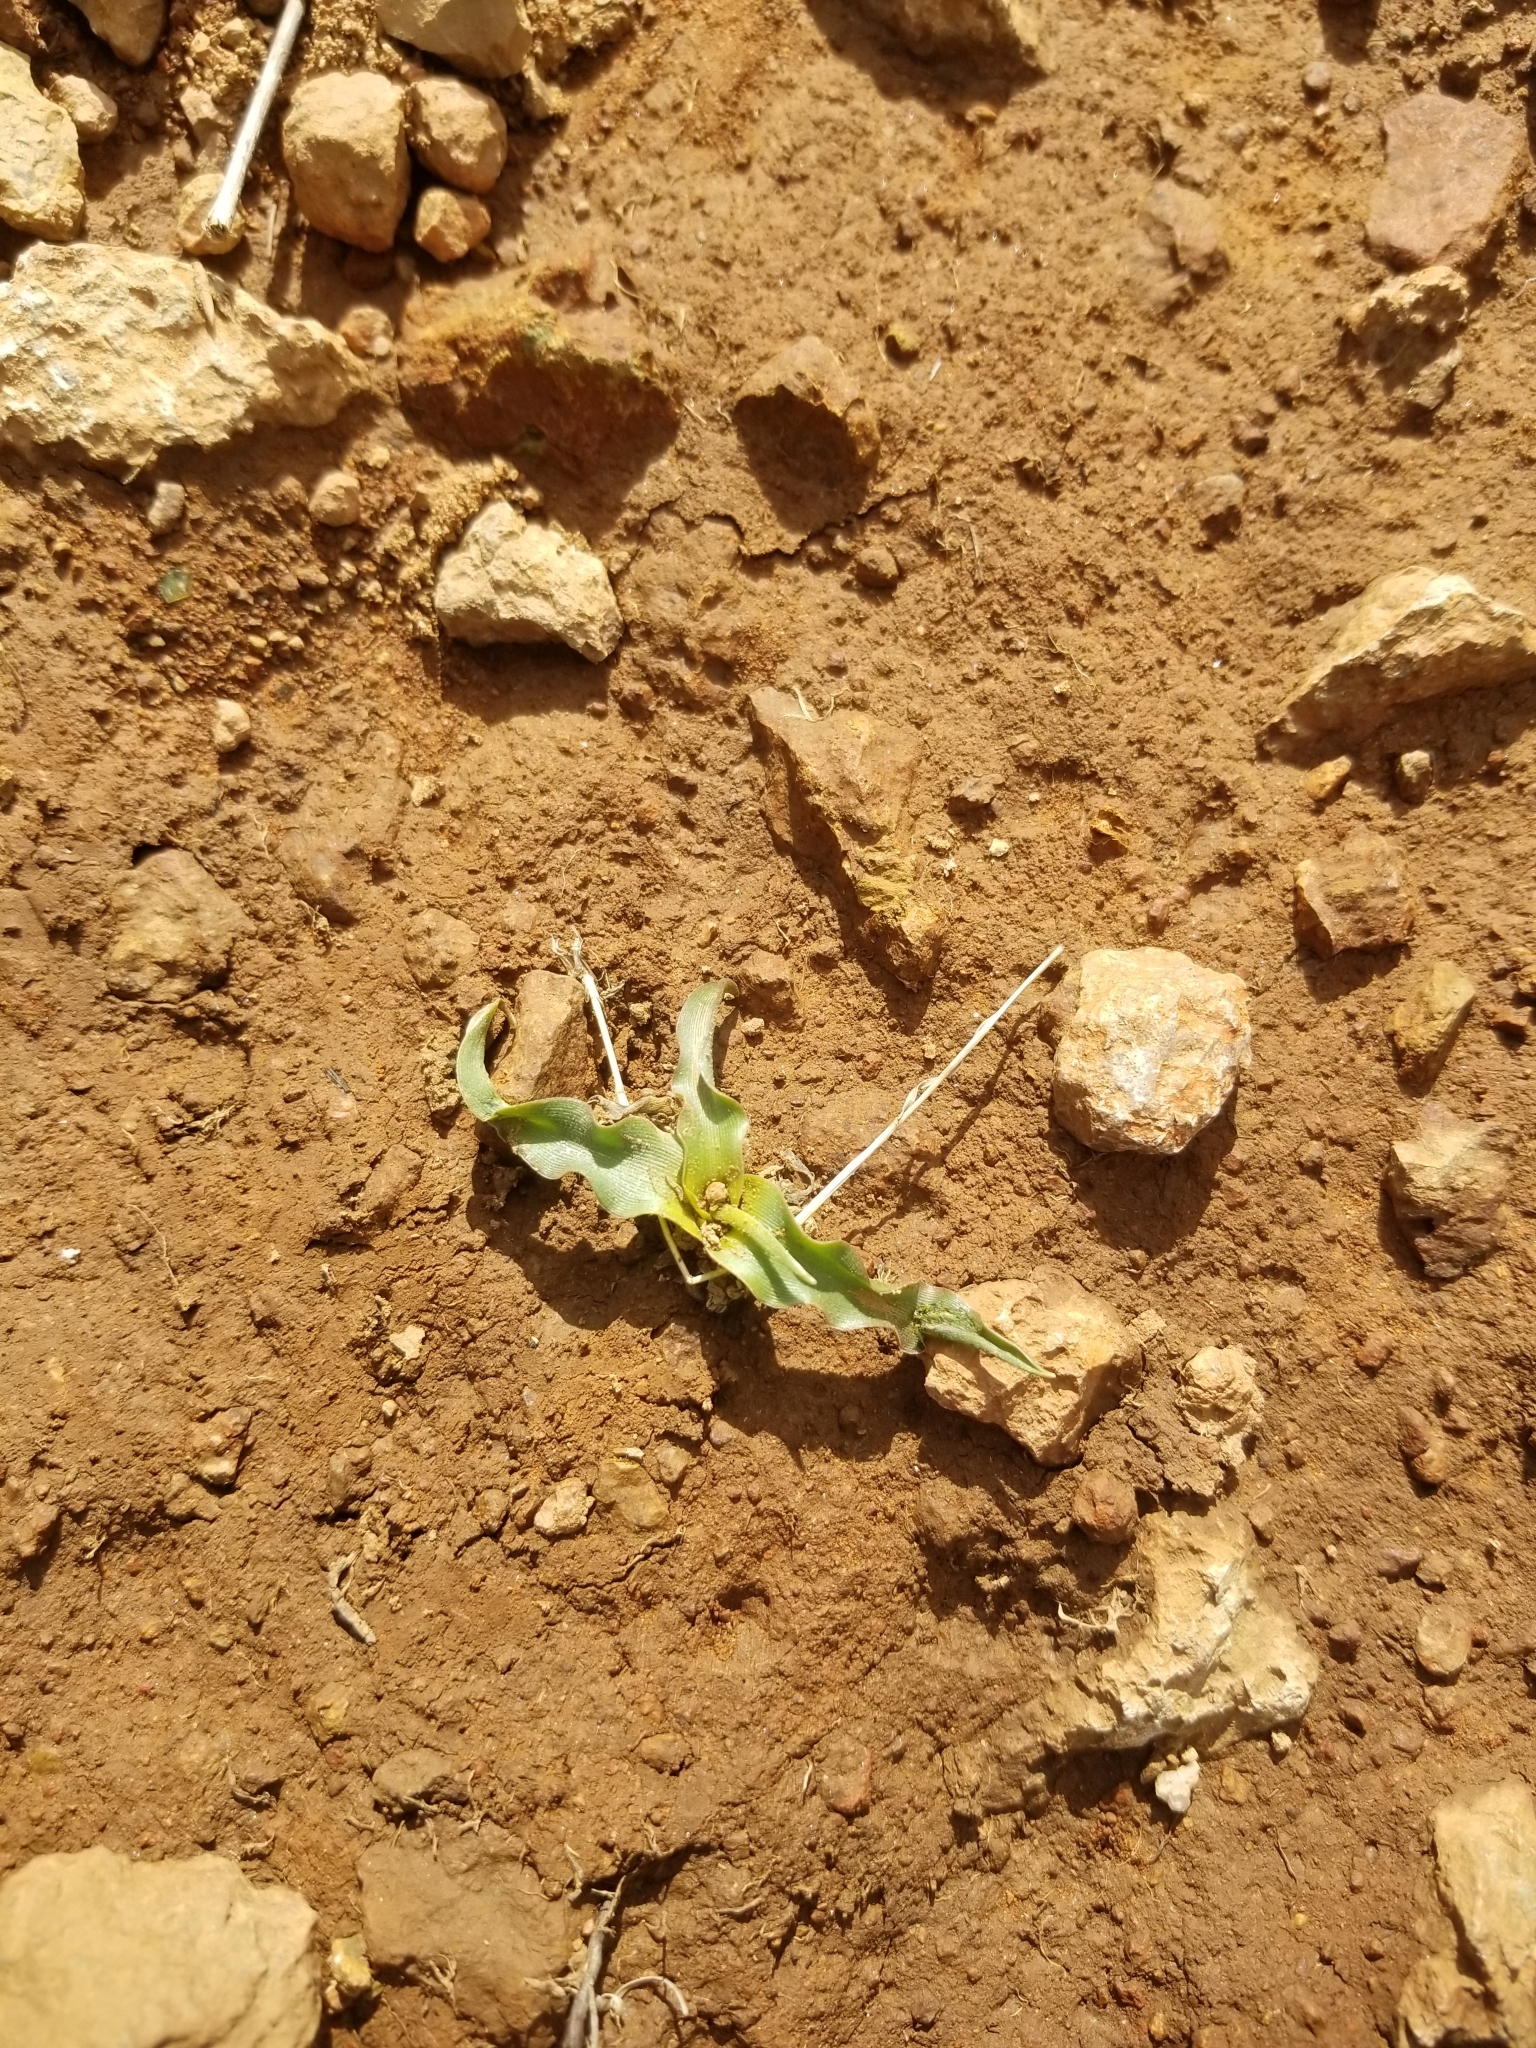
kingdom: Plantae
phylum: Tracheophyta
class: Liliopsida
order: Asparagales
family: Asparagaceae
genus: Hooveria
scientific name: Hooveria parviflora
